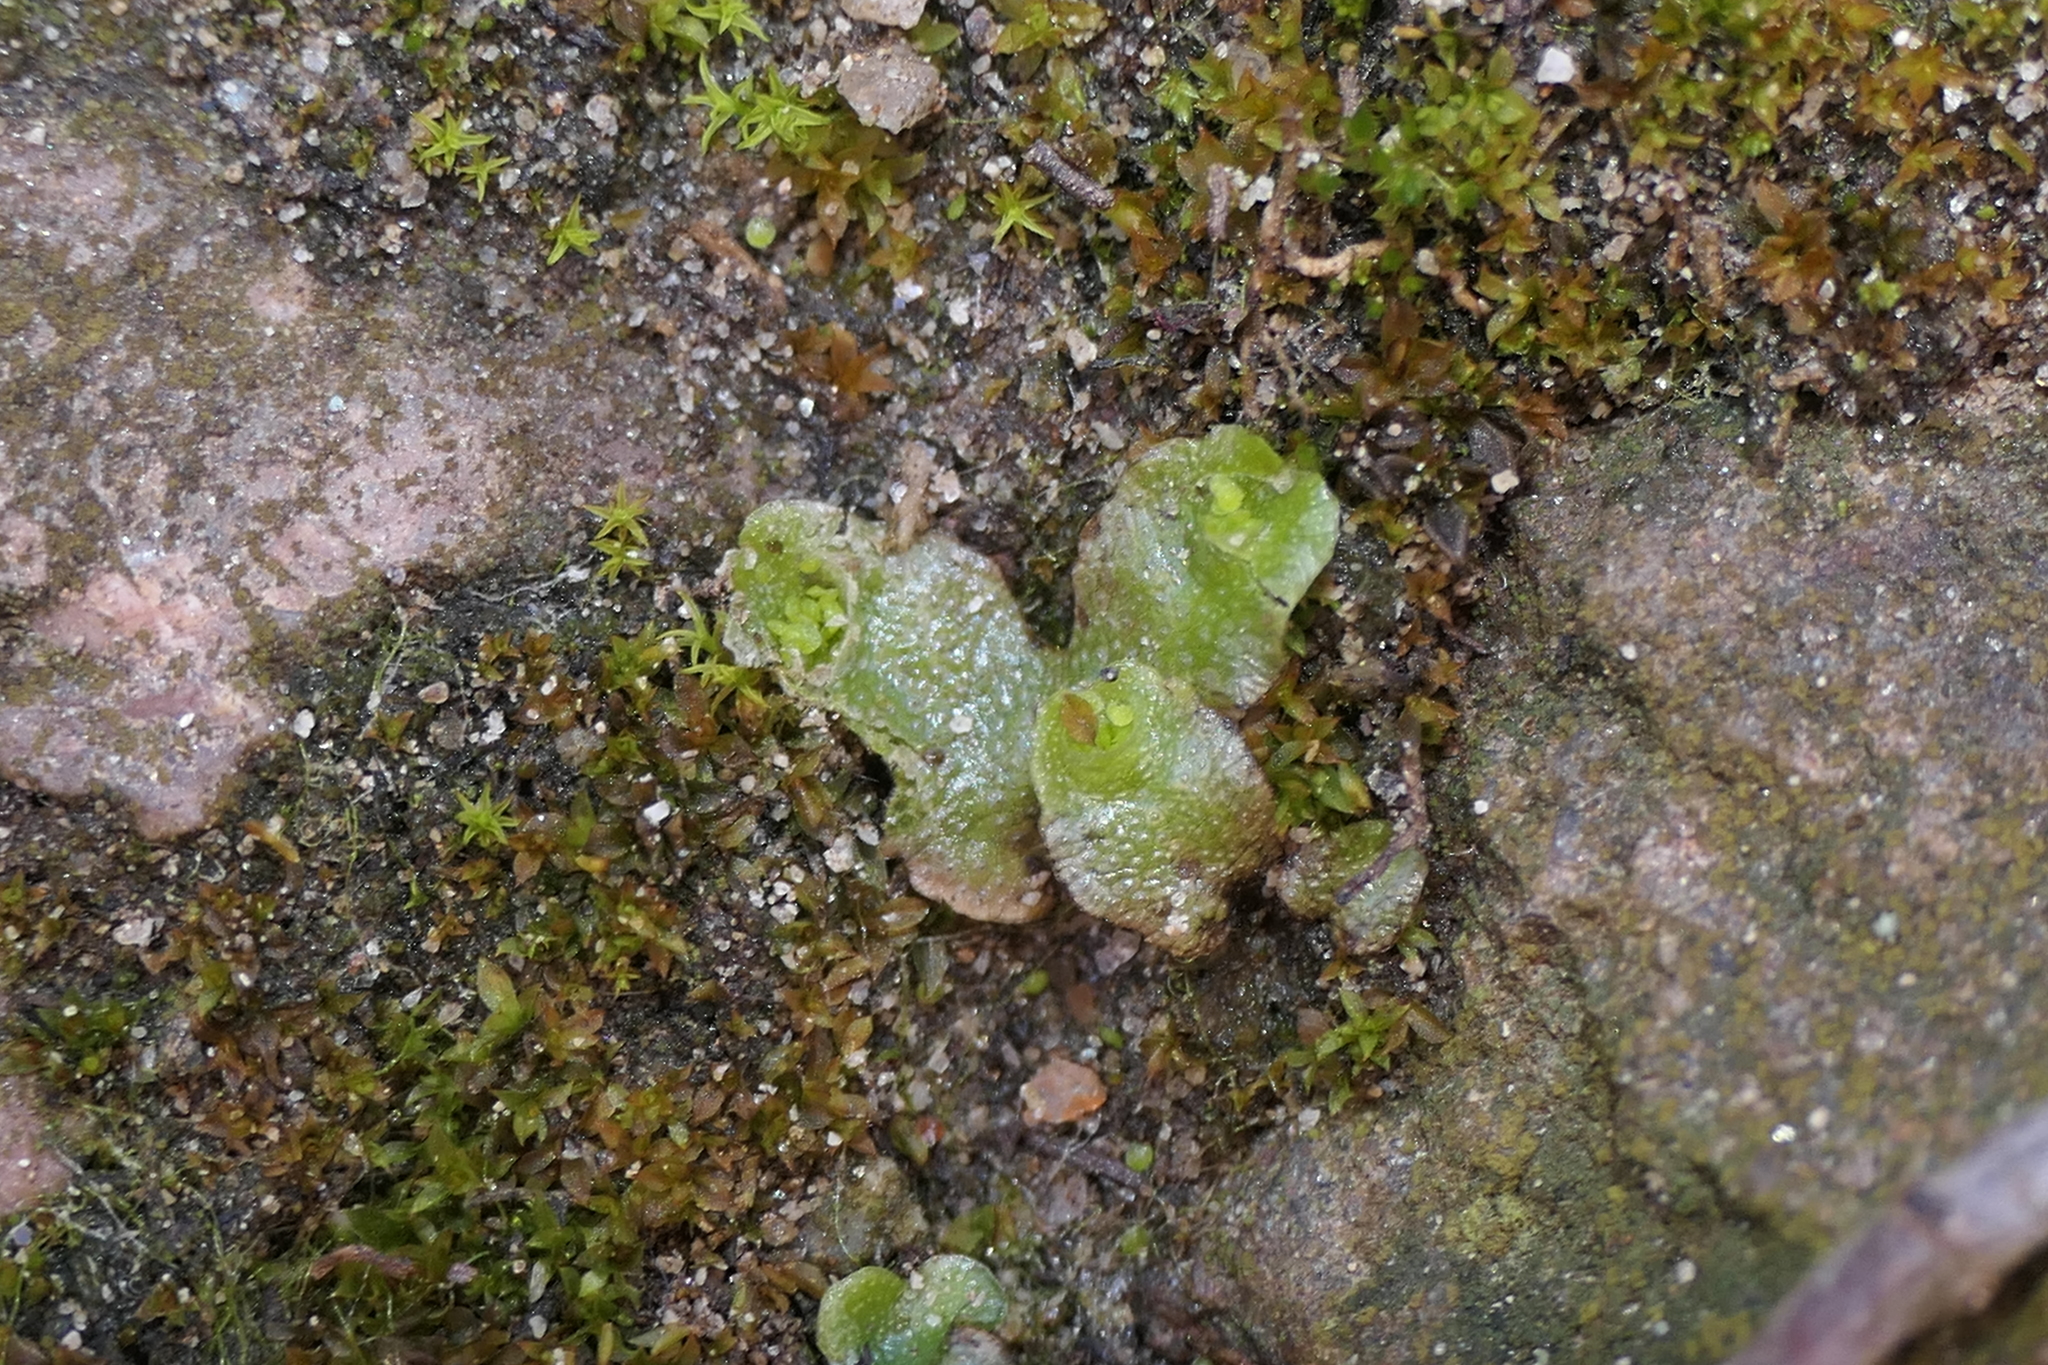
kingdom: Plantae
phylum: Marchantiophyta
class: Marchantiopsida
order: Lunulariales
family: Lunulariaceae
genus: Lunularia
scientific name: Lunularia cruciata
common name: Crescent-cup liverwort
